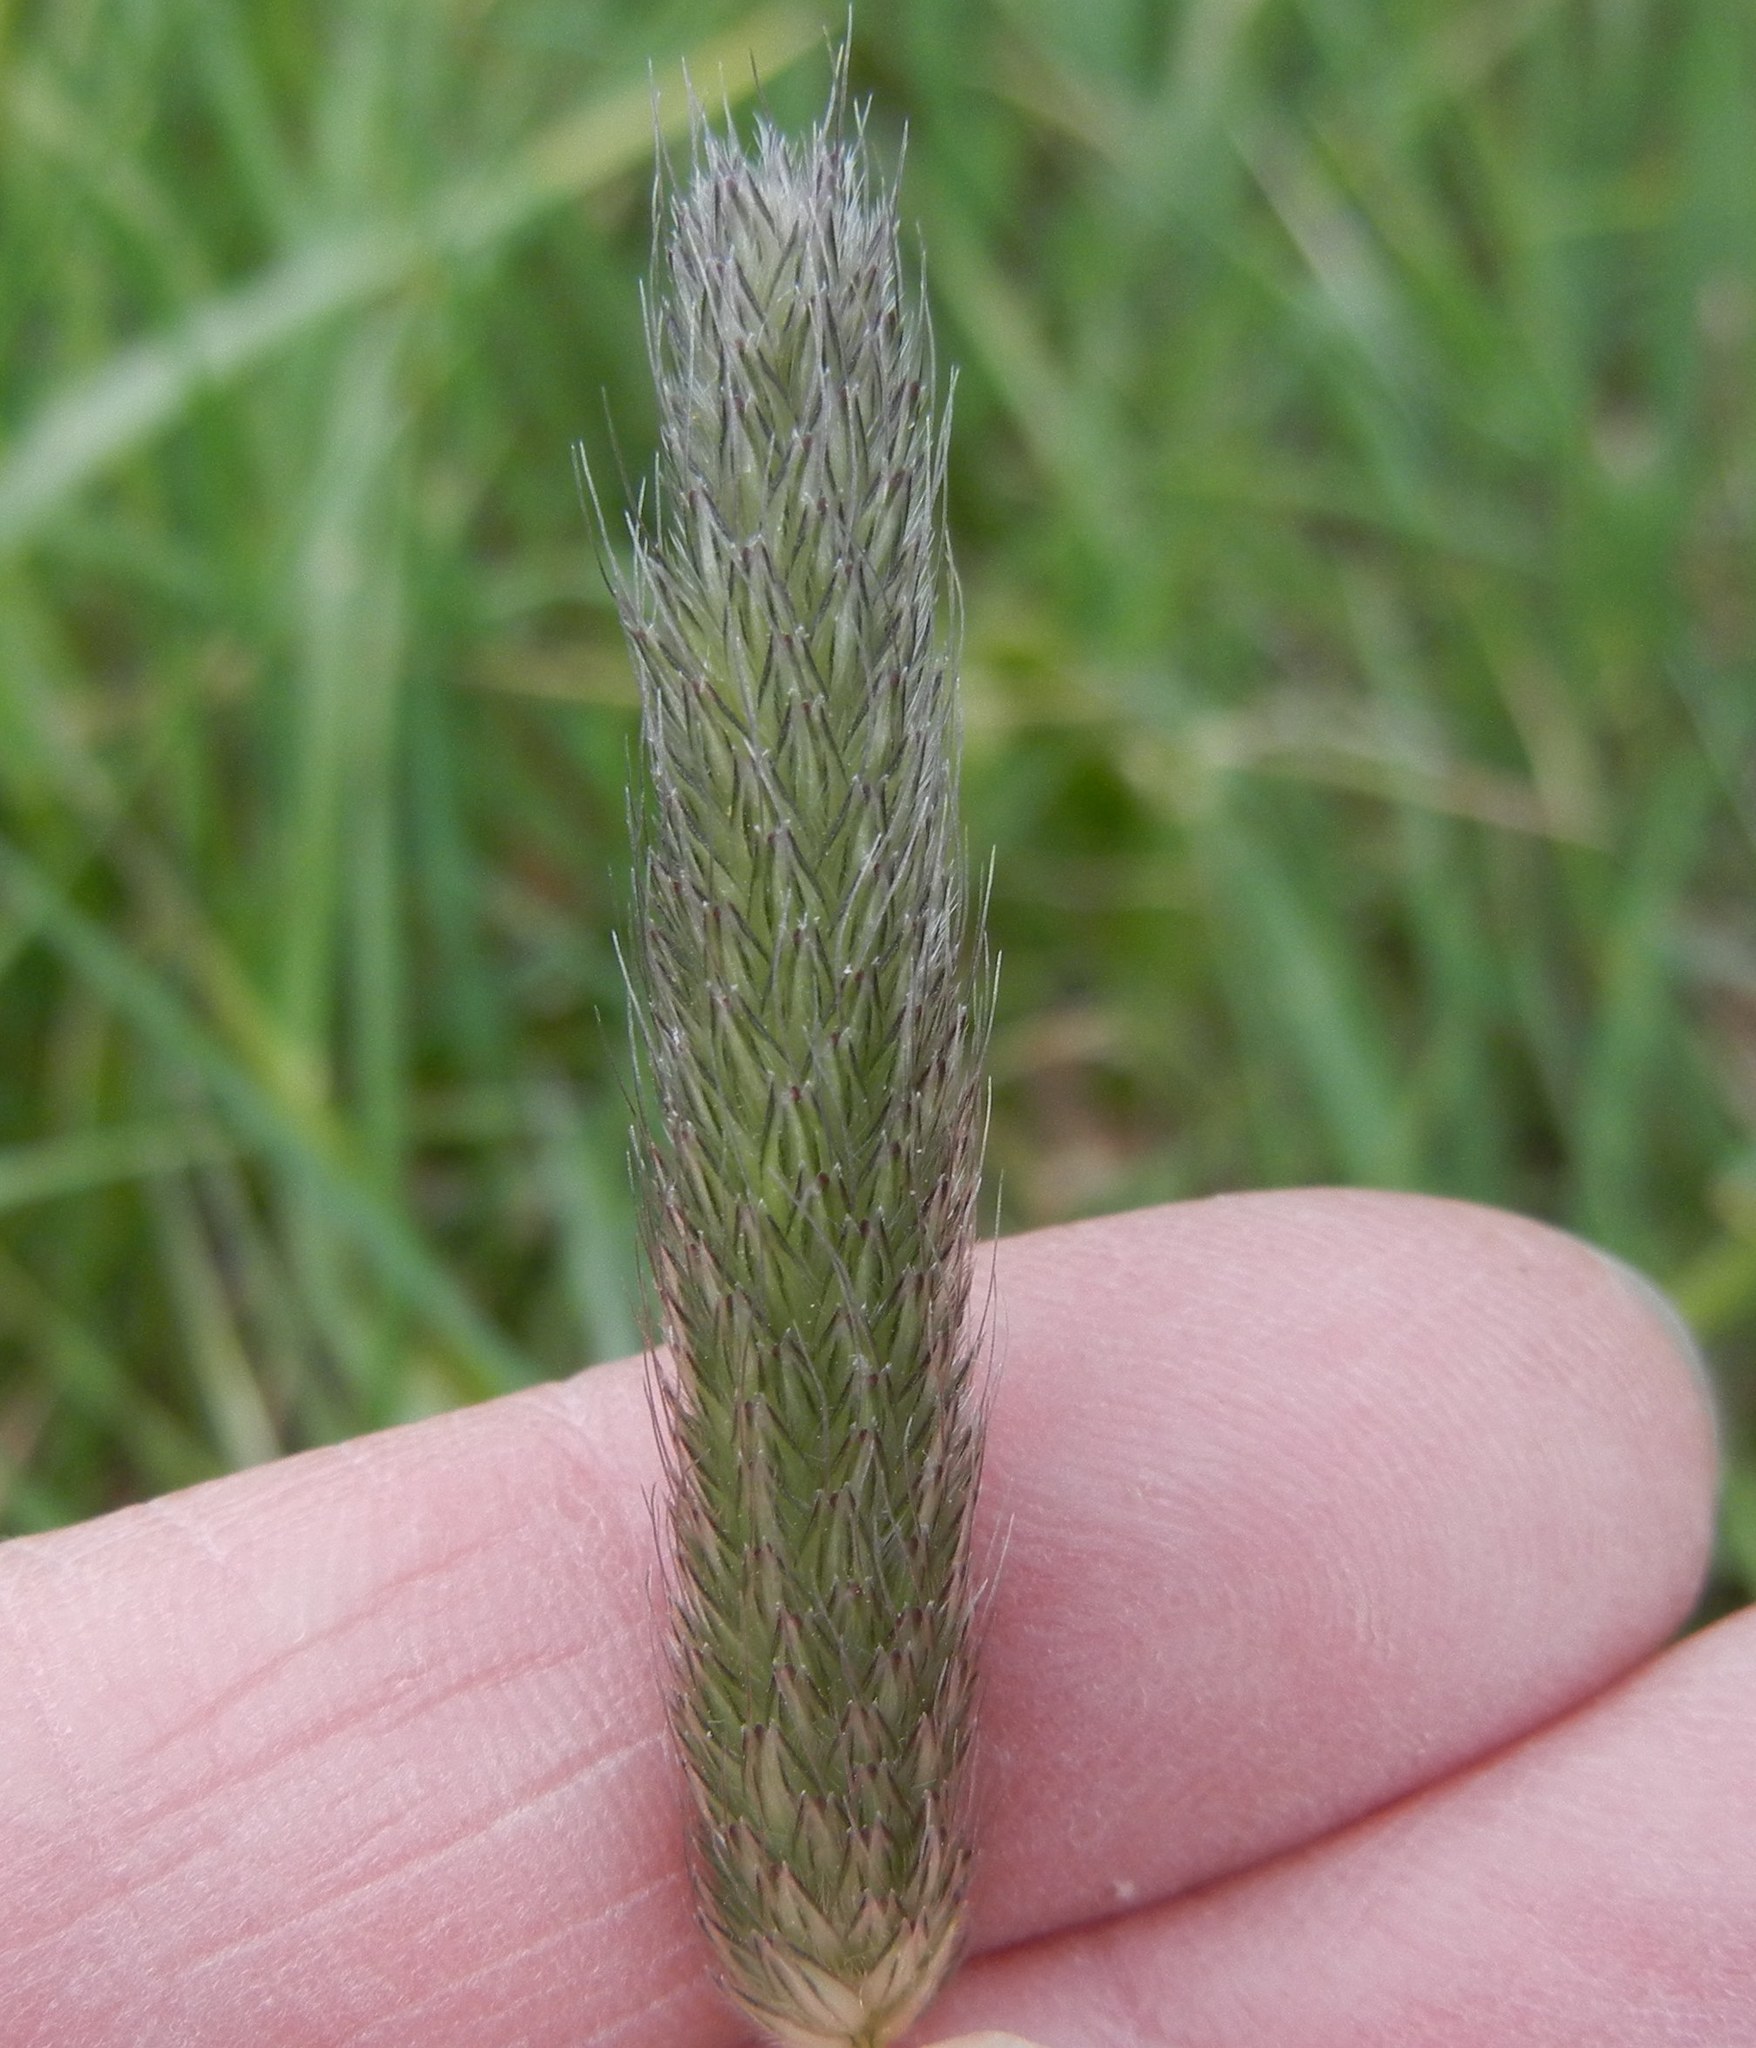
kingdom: Plantae
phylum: Tracheophyta
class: Liliopsida
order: Poales
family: Poaceae
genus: Alopecurus
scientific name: Alopecurus pratensis
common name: Meadow foxtail
